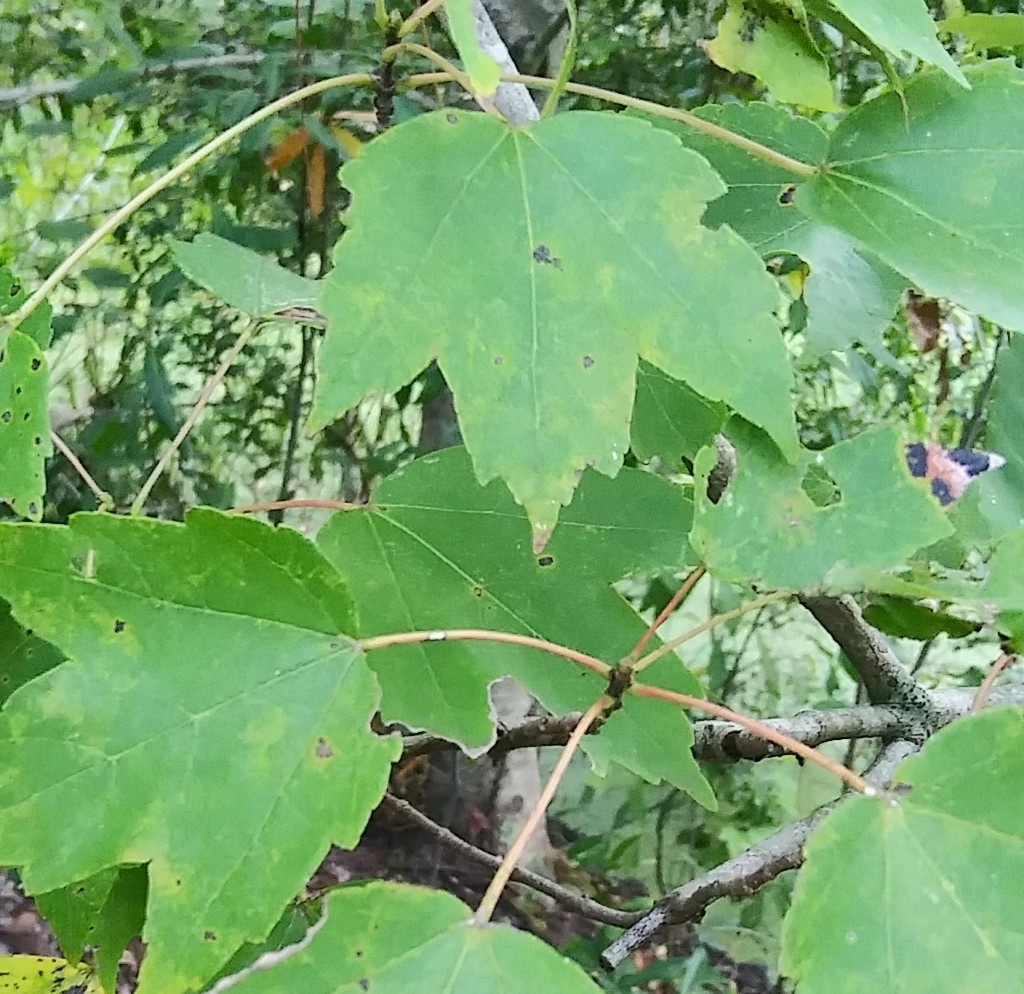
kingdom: Plantae
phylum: Tracheophyta
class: Magnoliopsida
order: Sapindales
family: Sapindaceae
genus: Acer
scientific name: Acer rubrum
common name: Red maple
